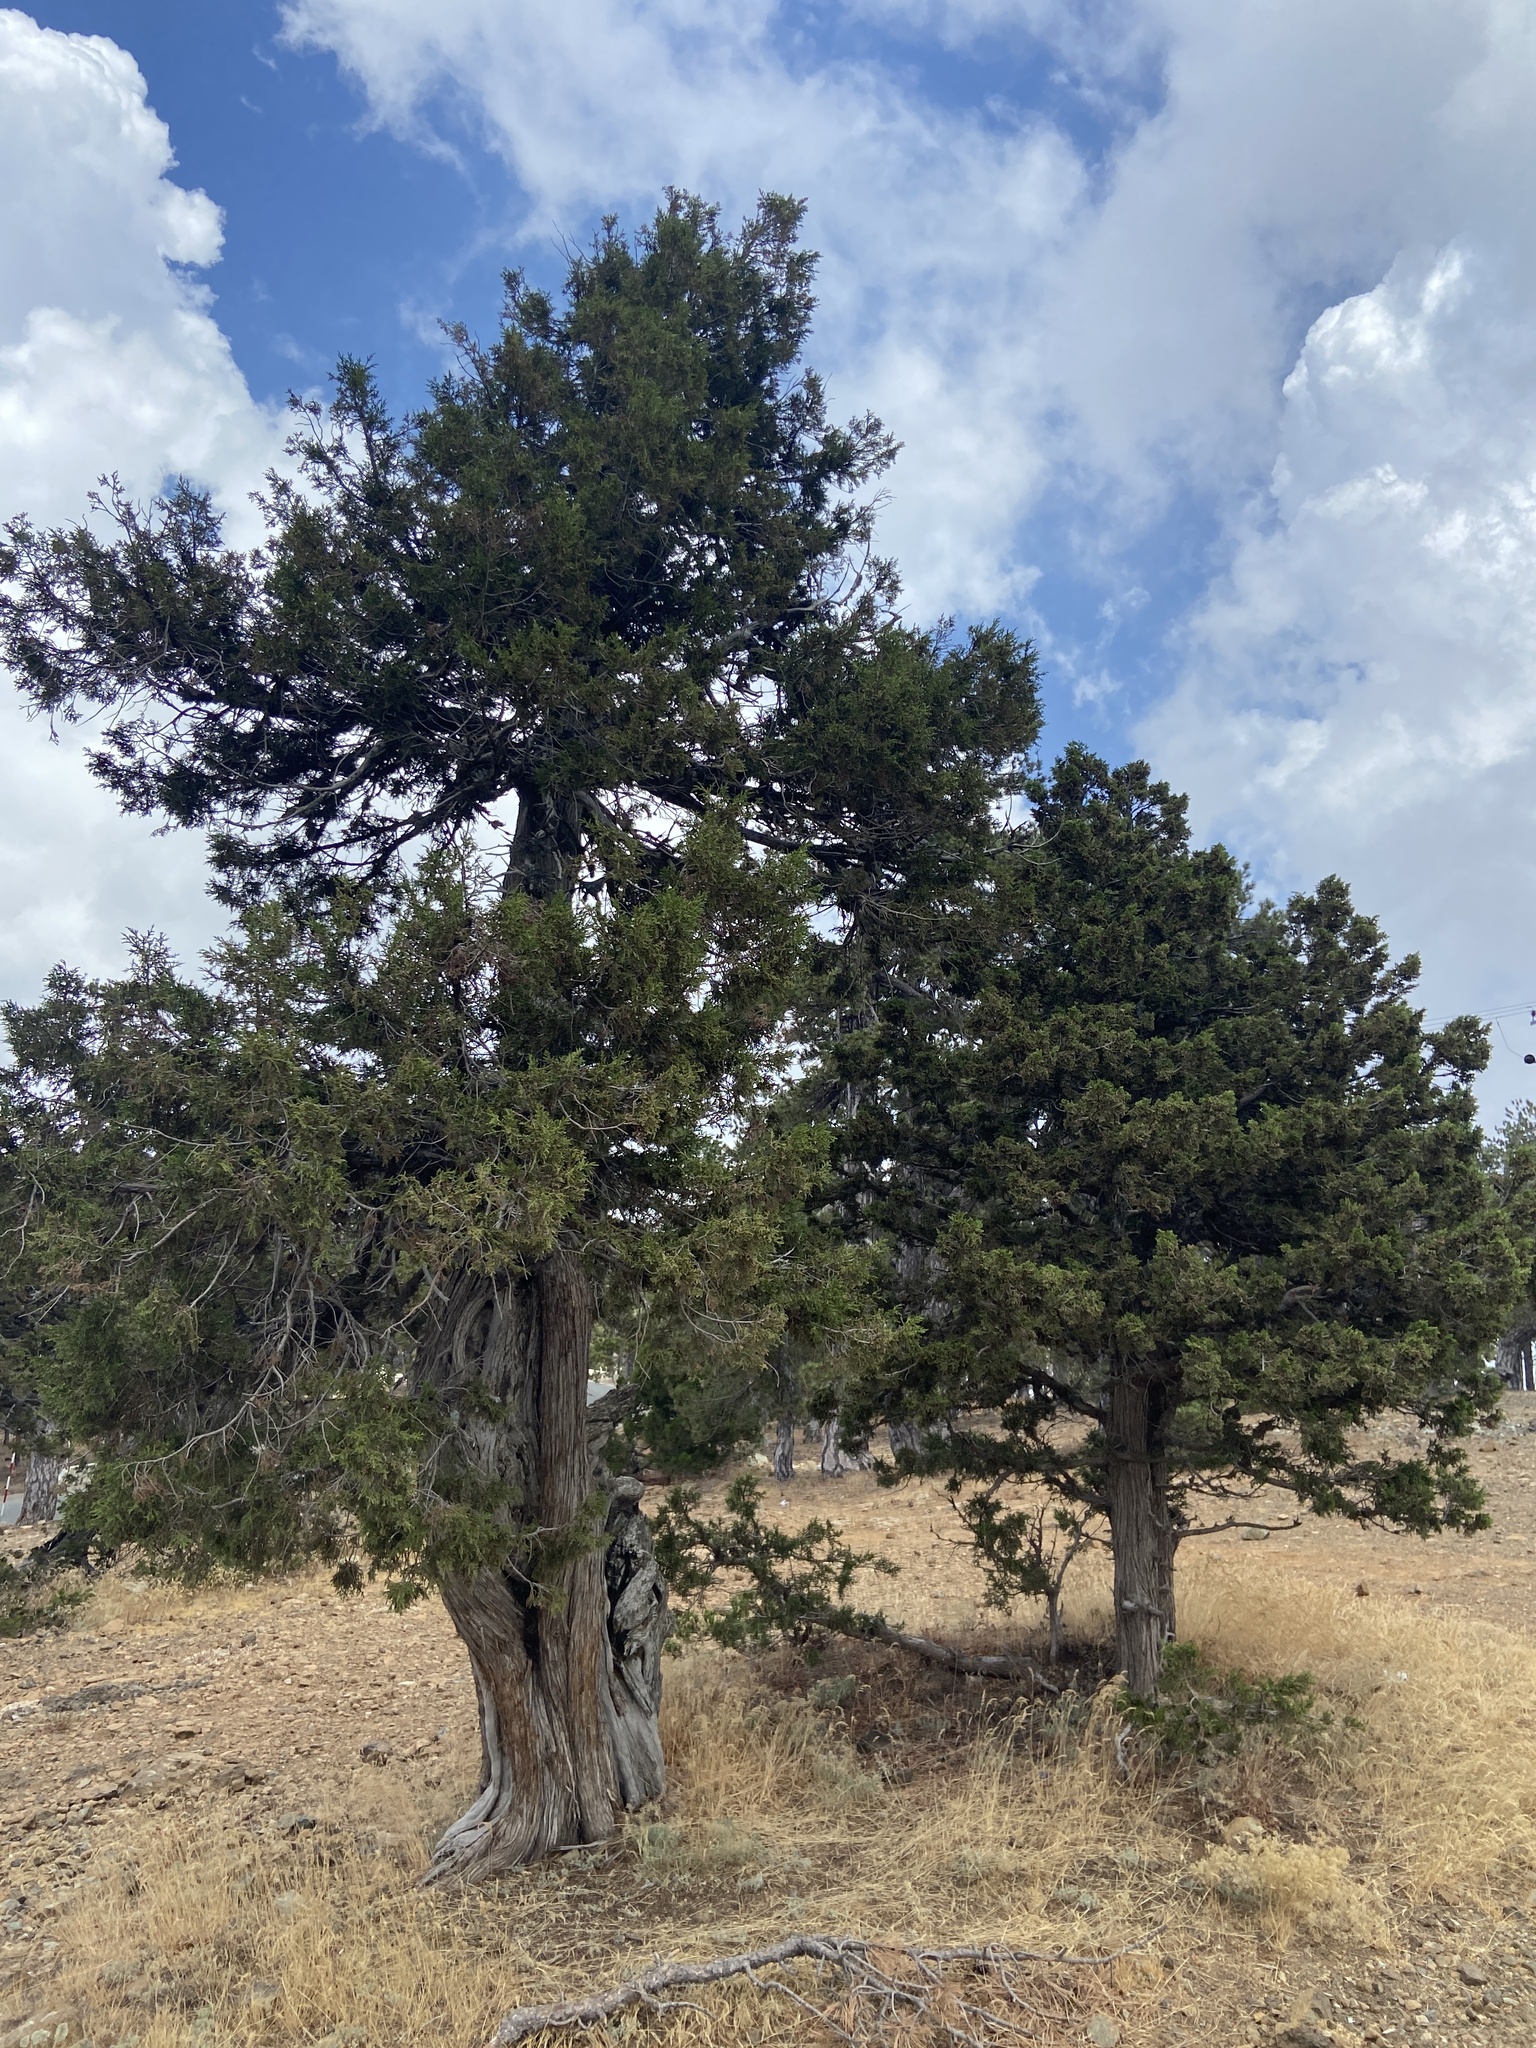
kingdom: Plantae
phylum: Tracheophyta
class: Pinopsida
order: Pinales
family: Cupressaceae
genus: Juniperus
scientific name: Juniperus foetidissima
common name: Stinking juniper
